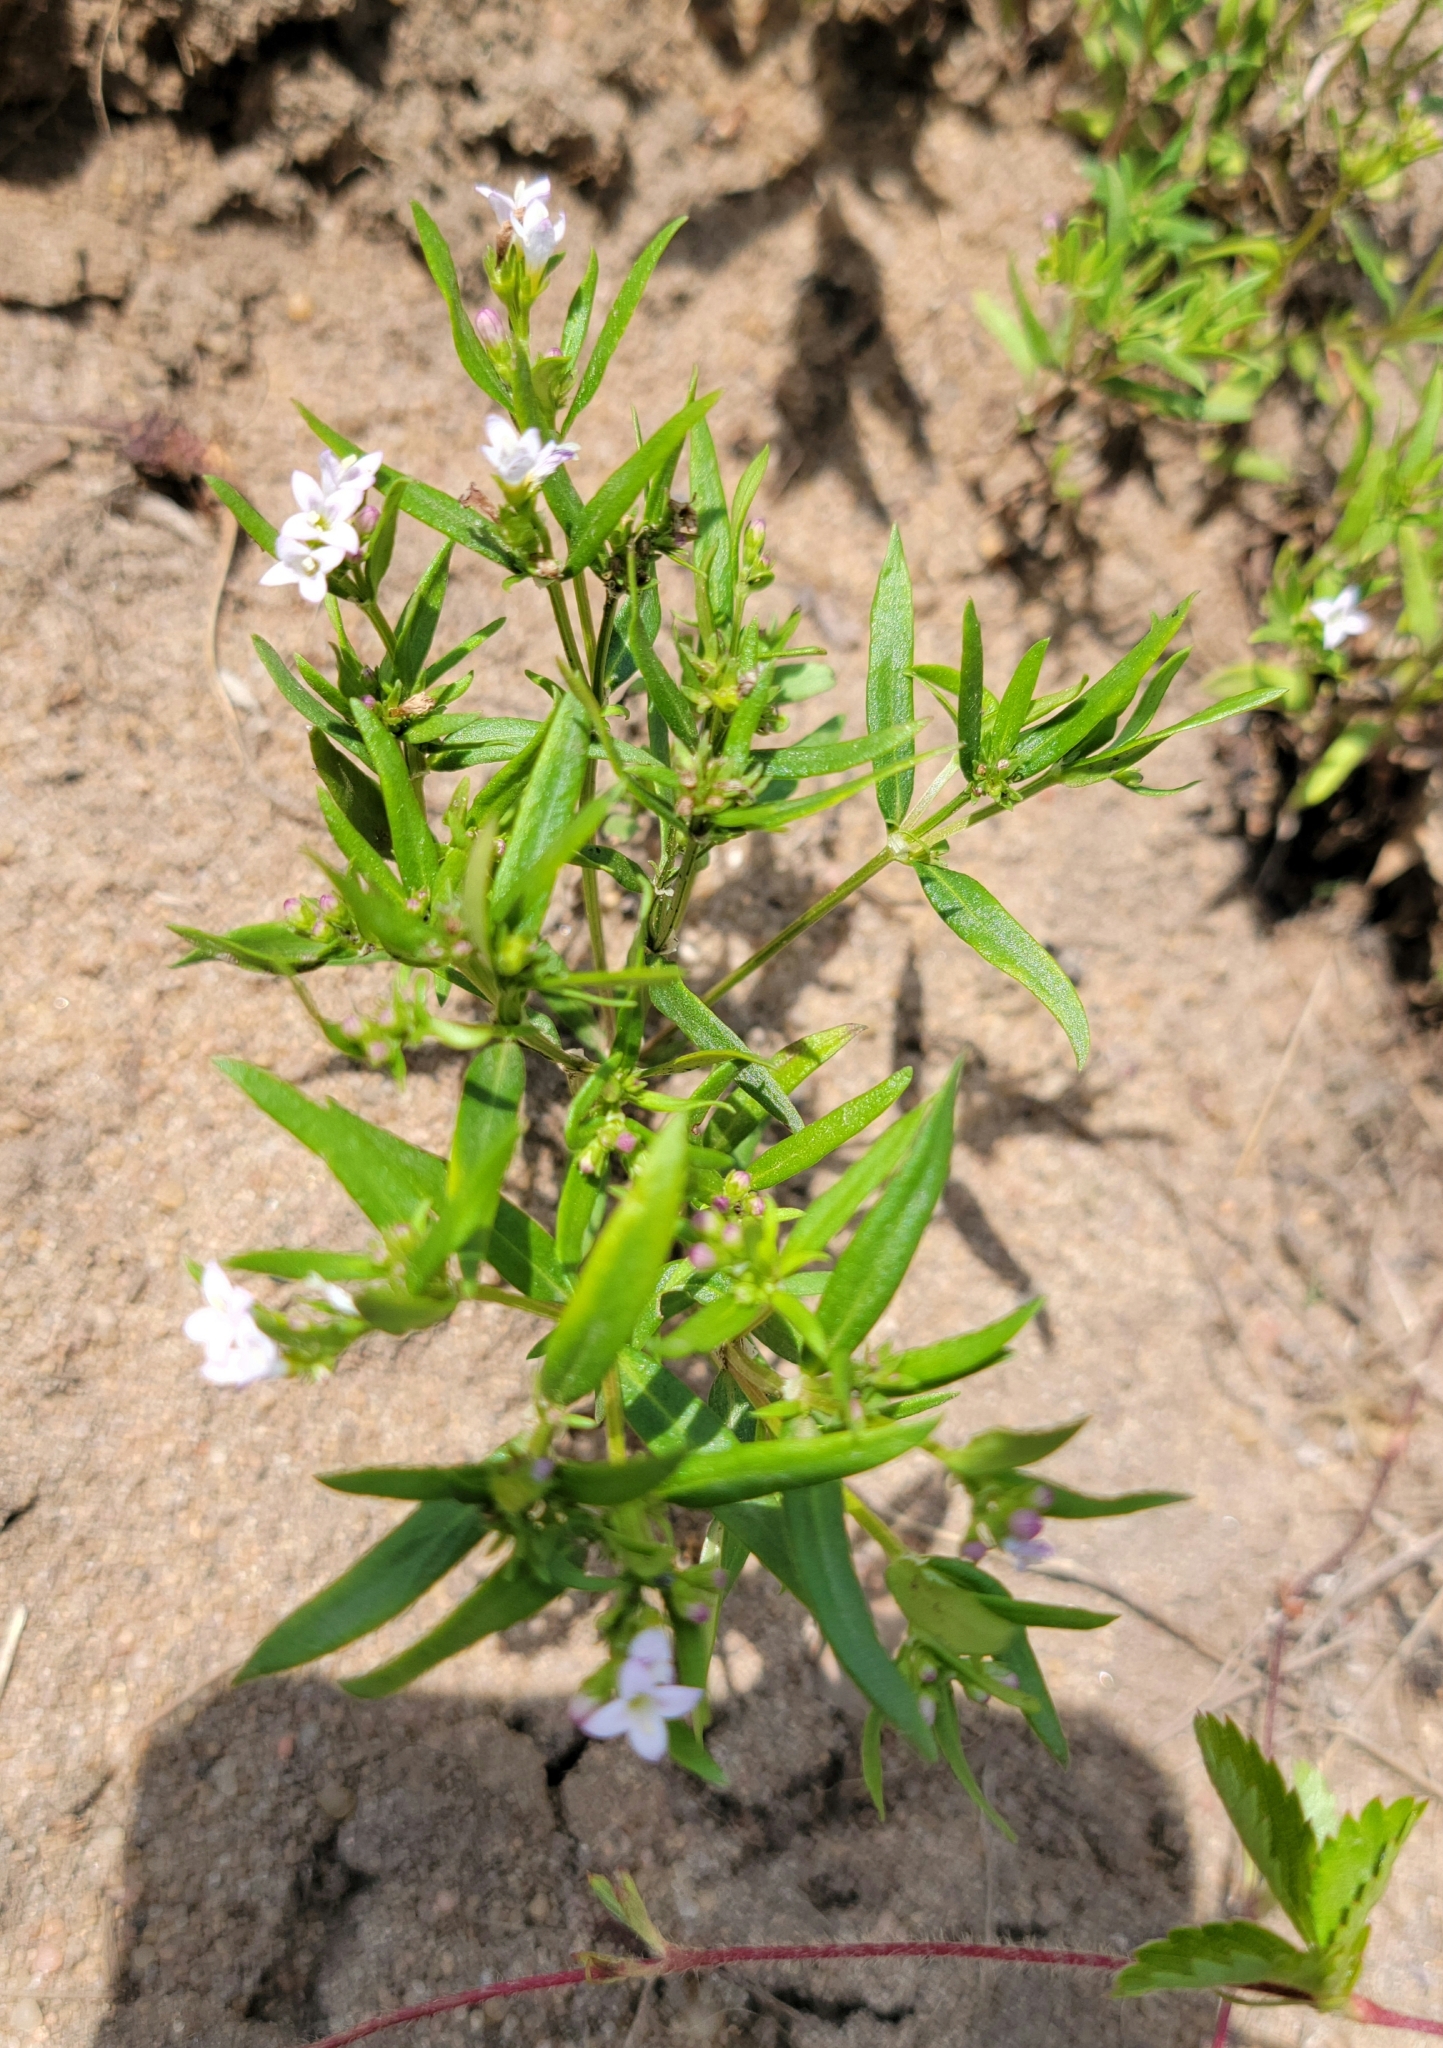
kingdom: Plantae
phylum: Tracheophyta
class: Magnoliopsida
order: Gentianales
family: Rubiaceae
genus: Houstonia
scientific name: Houstonia longifolia
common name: Long-leaved bluets
